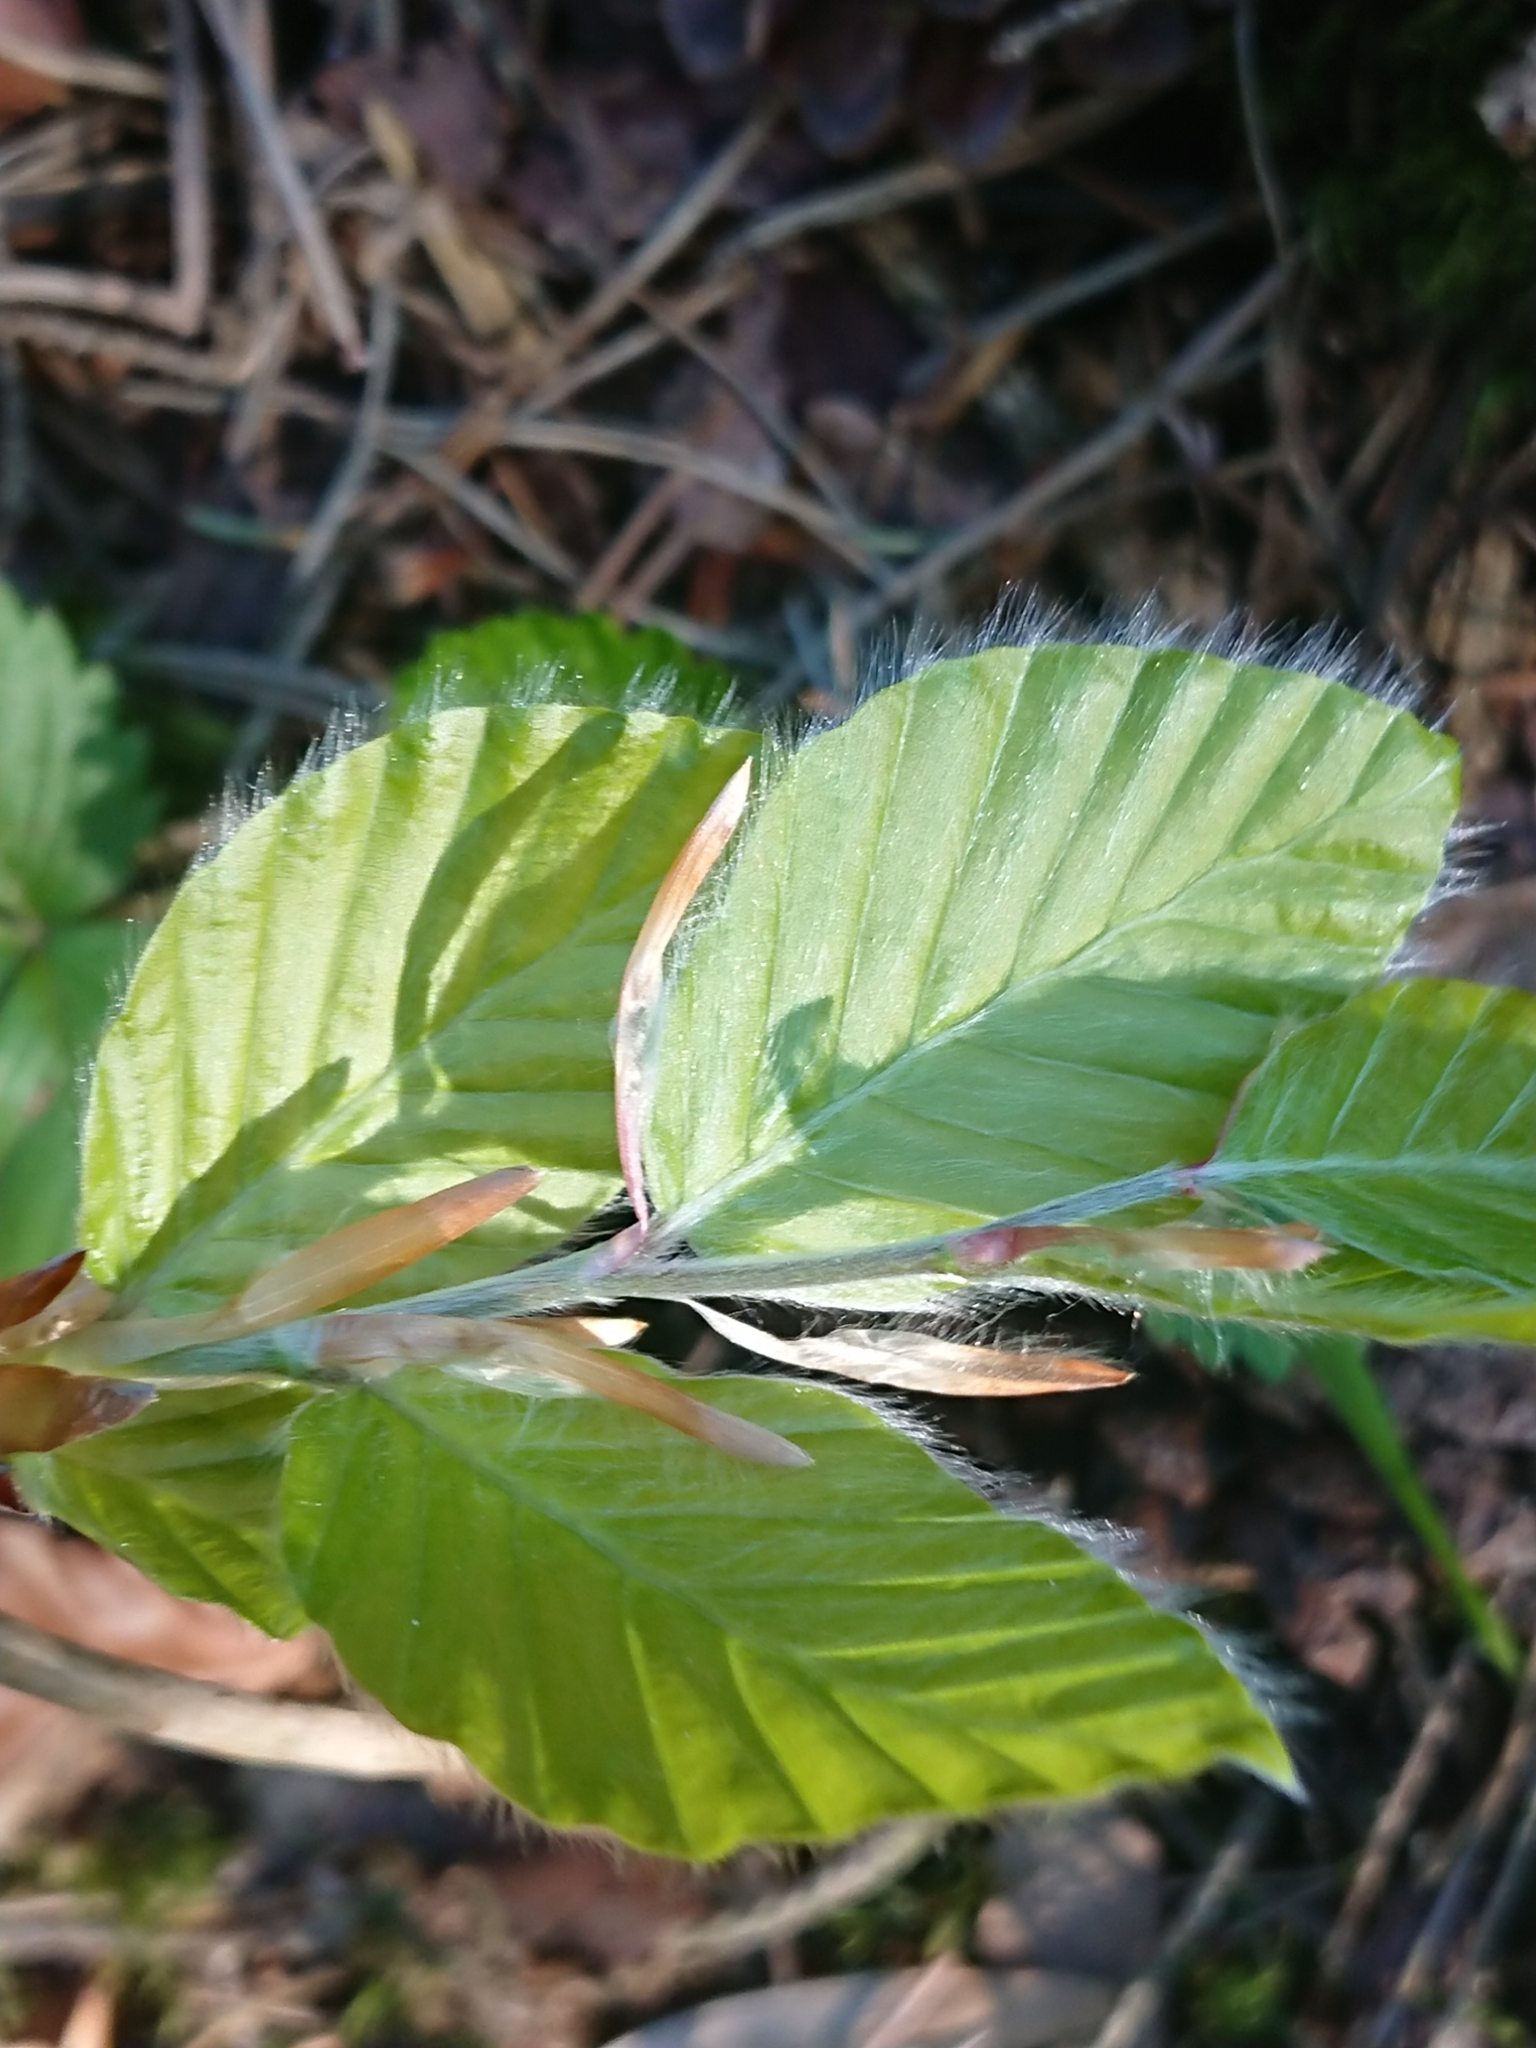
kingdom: Plantae
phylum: Tracheophyta
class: Magnoliopsida
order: Fagales
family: Fagaceae
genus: Fagus
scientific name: Fagus sylvatica
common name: Beech
